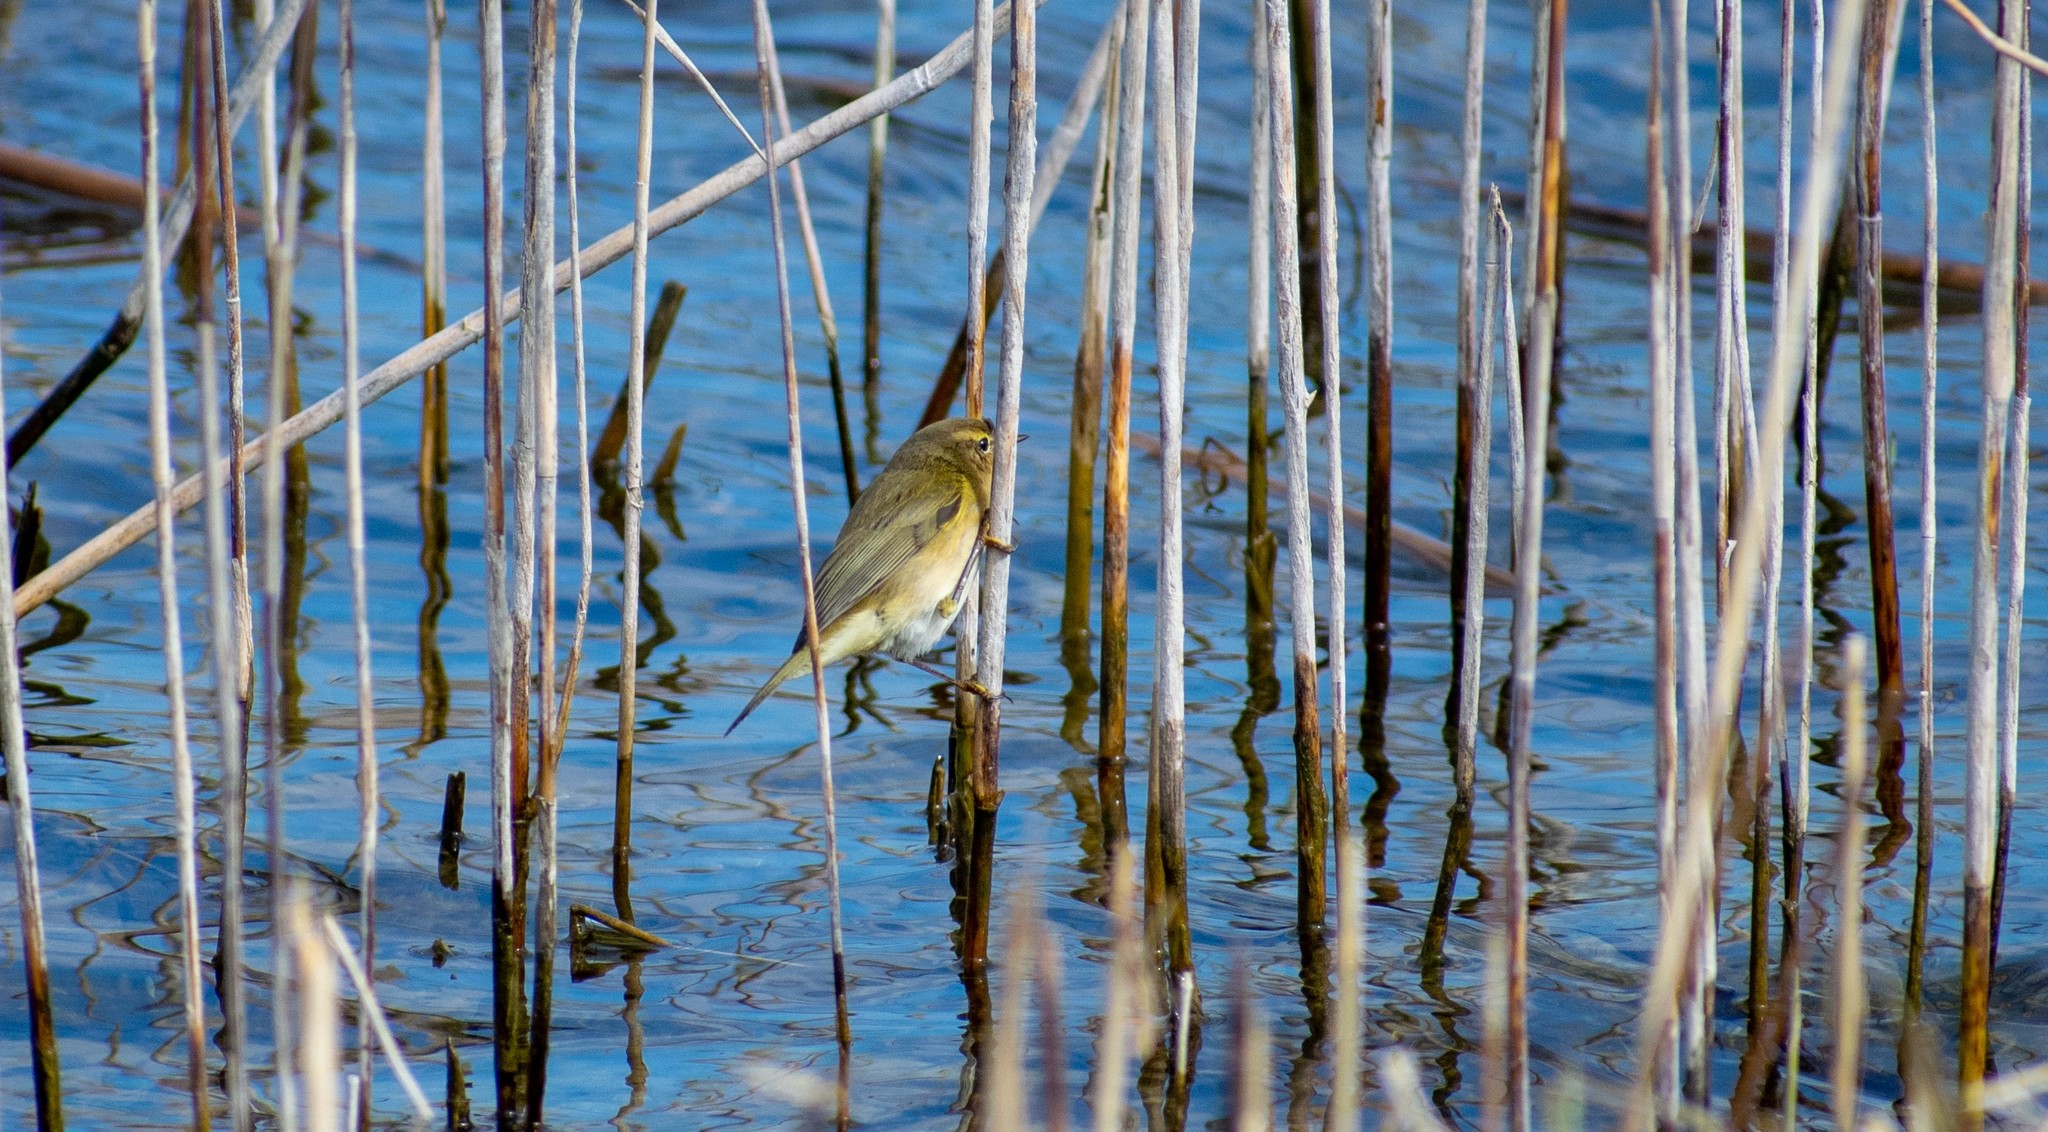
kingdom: Animalia
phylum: Chordata
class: Aves
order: Passeriformes
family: Phylloscopidae
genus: Phylloscopus
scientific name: Phylloscopus collybita
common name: Common chiffchaff
